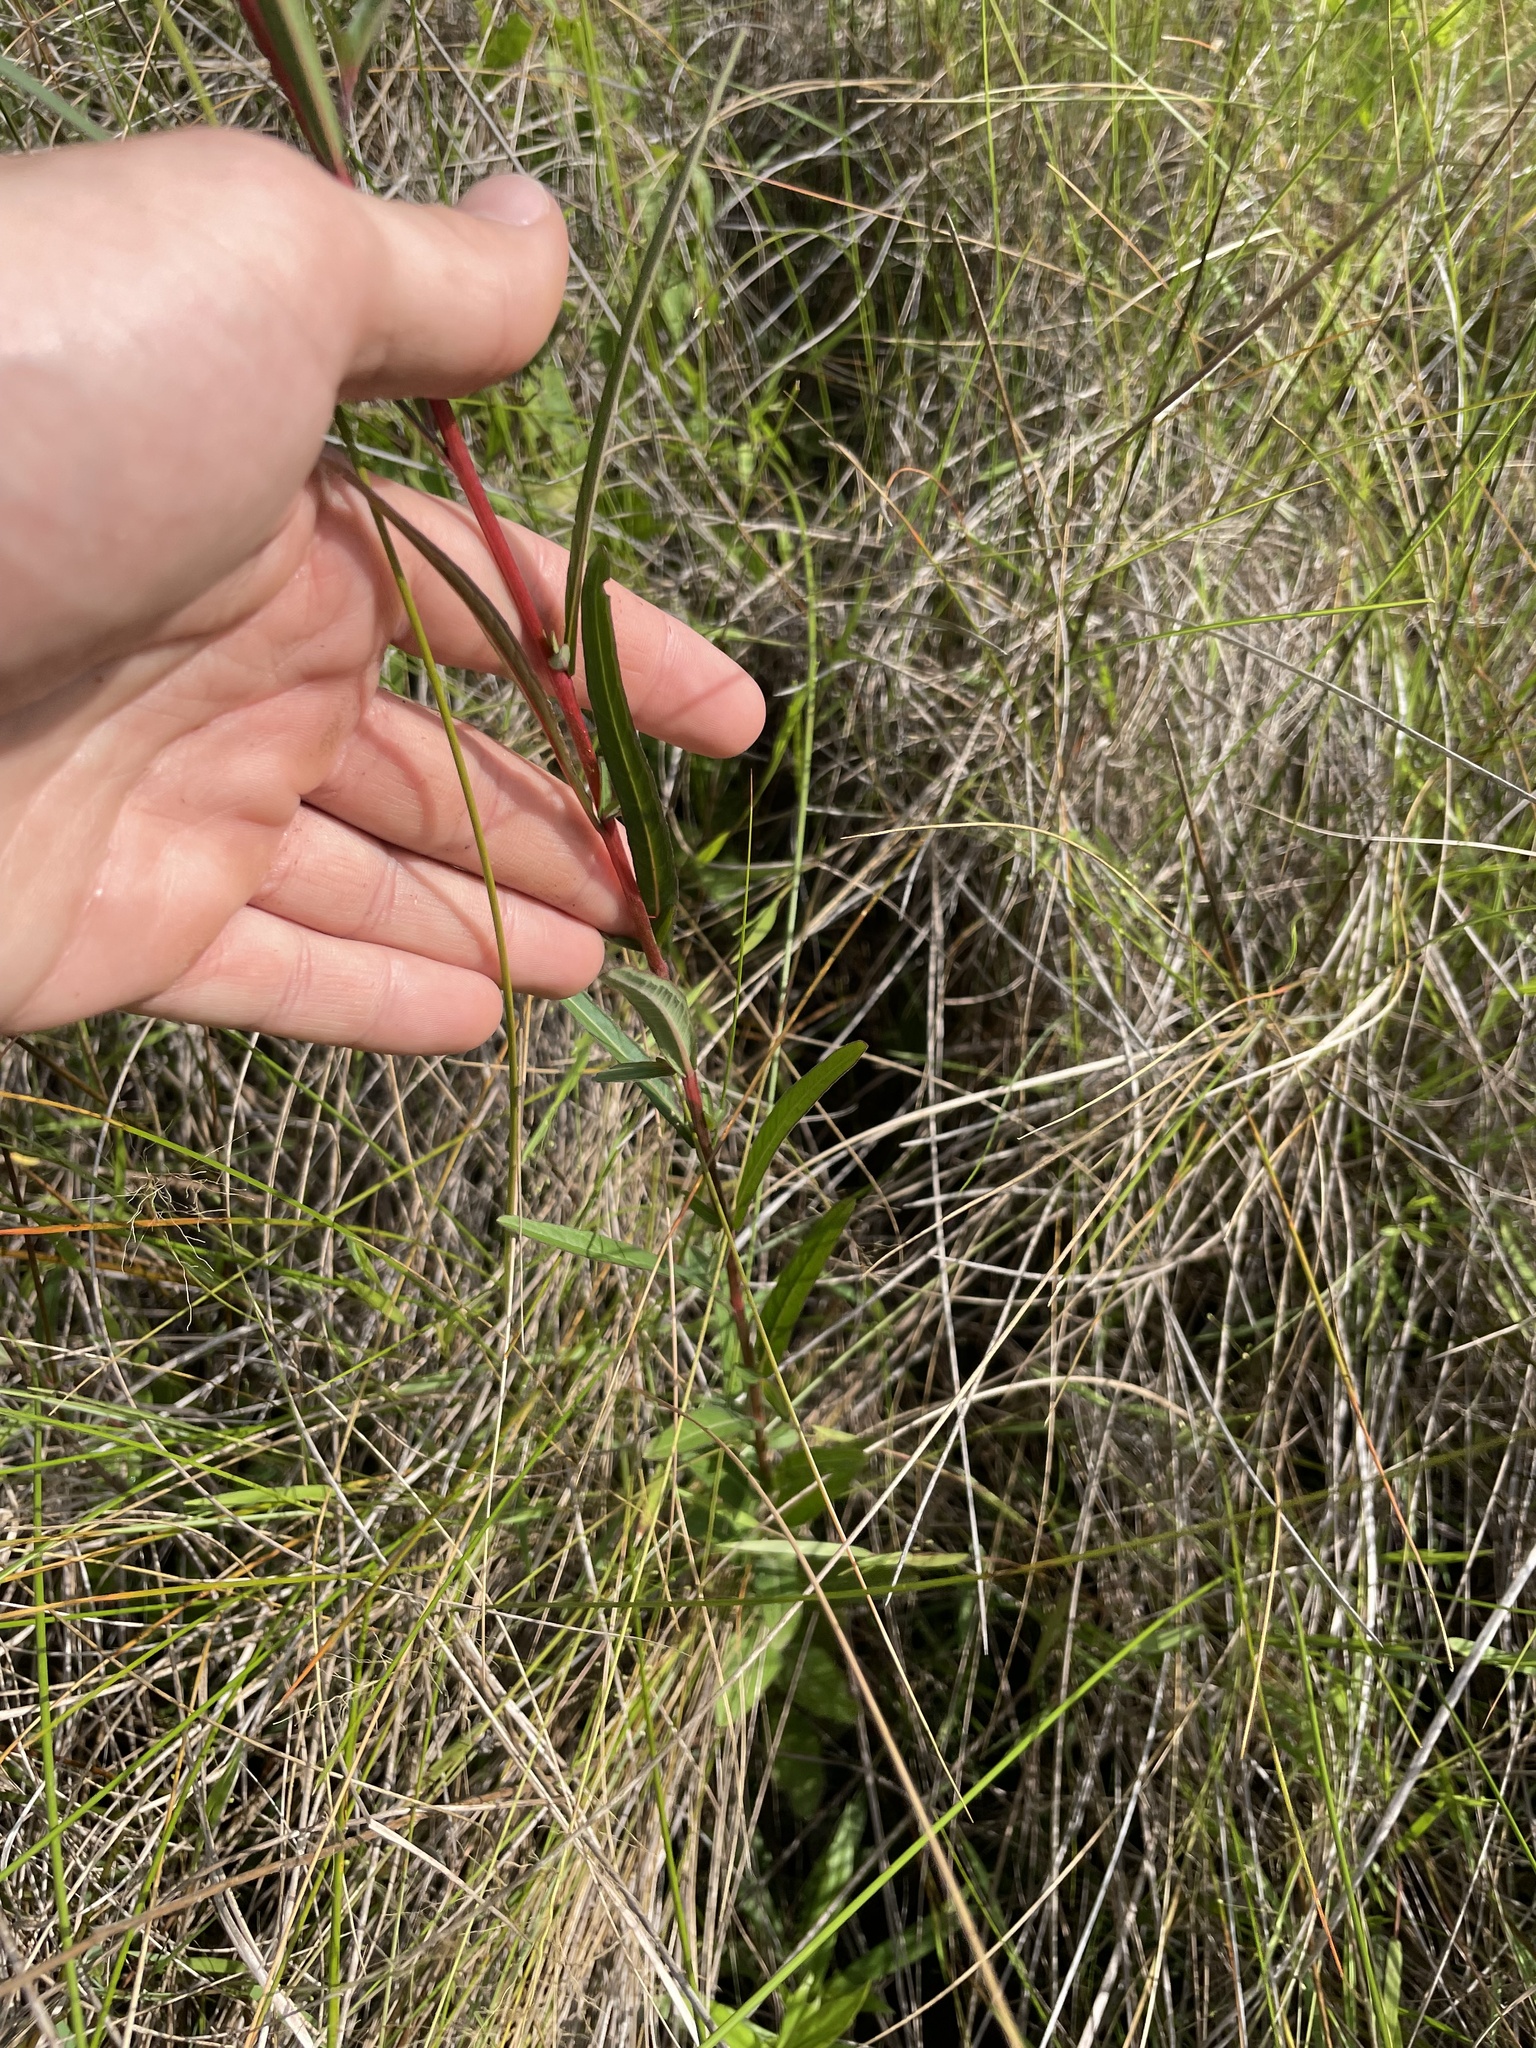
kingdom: Plantae
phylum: Tracheophyta
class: Magnoliopsida
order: Myrtales
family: Onagraceae
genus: Ludwigia
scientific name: Ludwigia maritima
